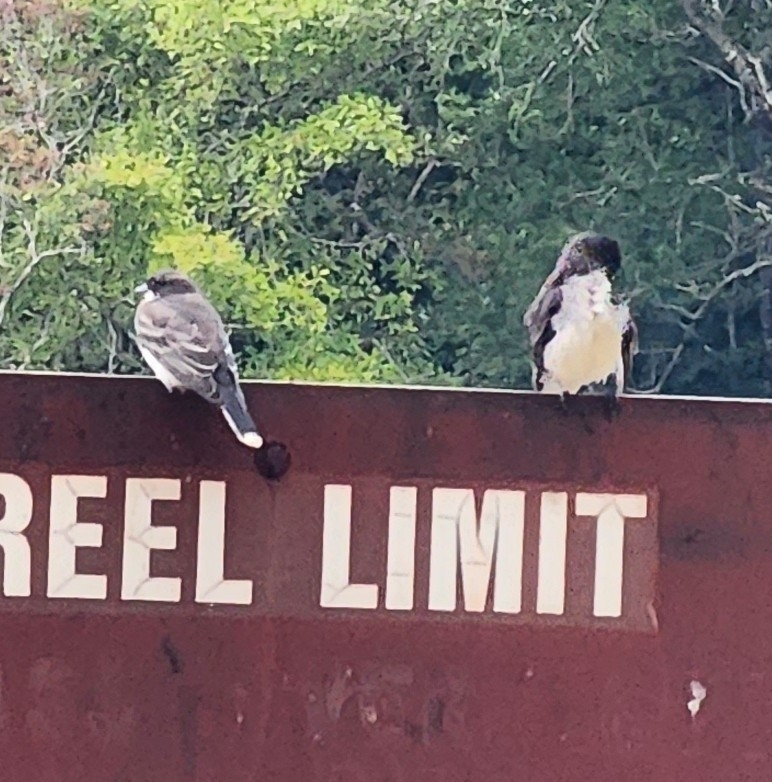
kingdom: Animalia
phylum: Chordata
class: Aves
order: Passeriformes
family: Tyrannidae
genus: Tyrannus
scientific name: Tyrannus tyrannus
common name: Eastern kingbird
